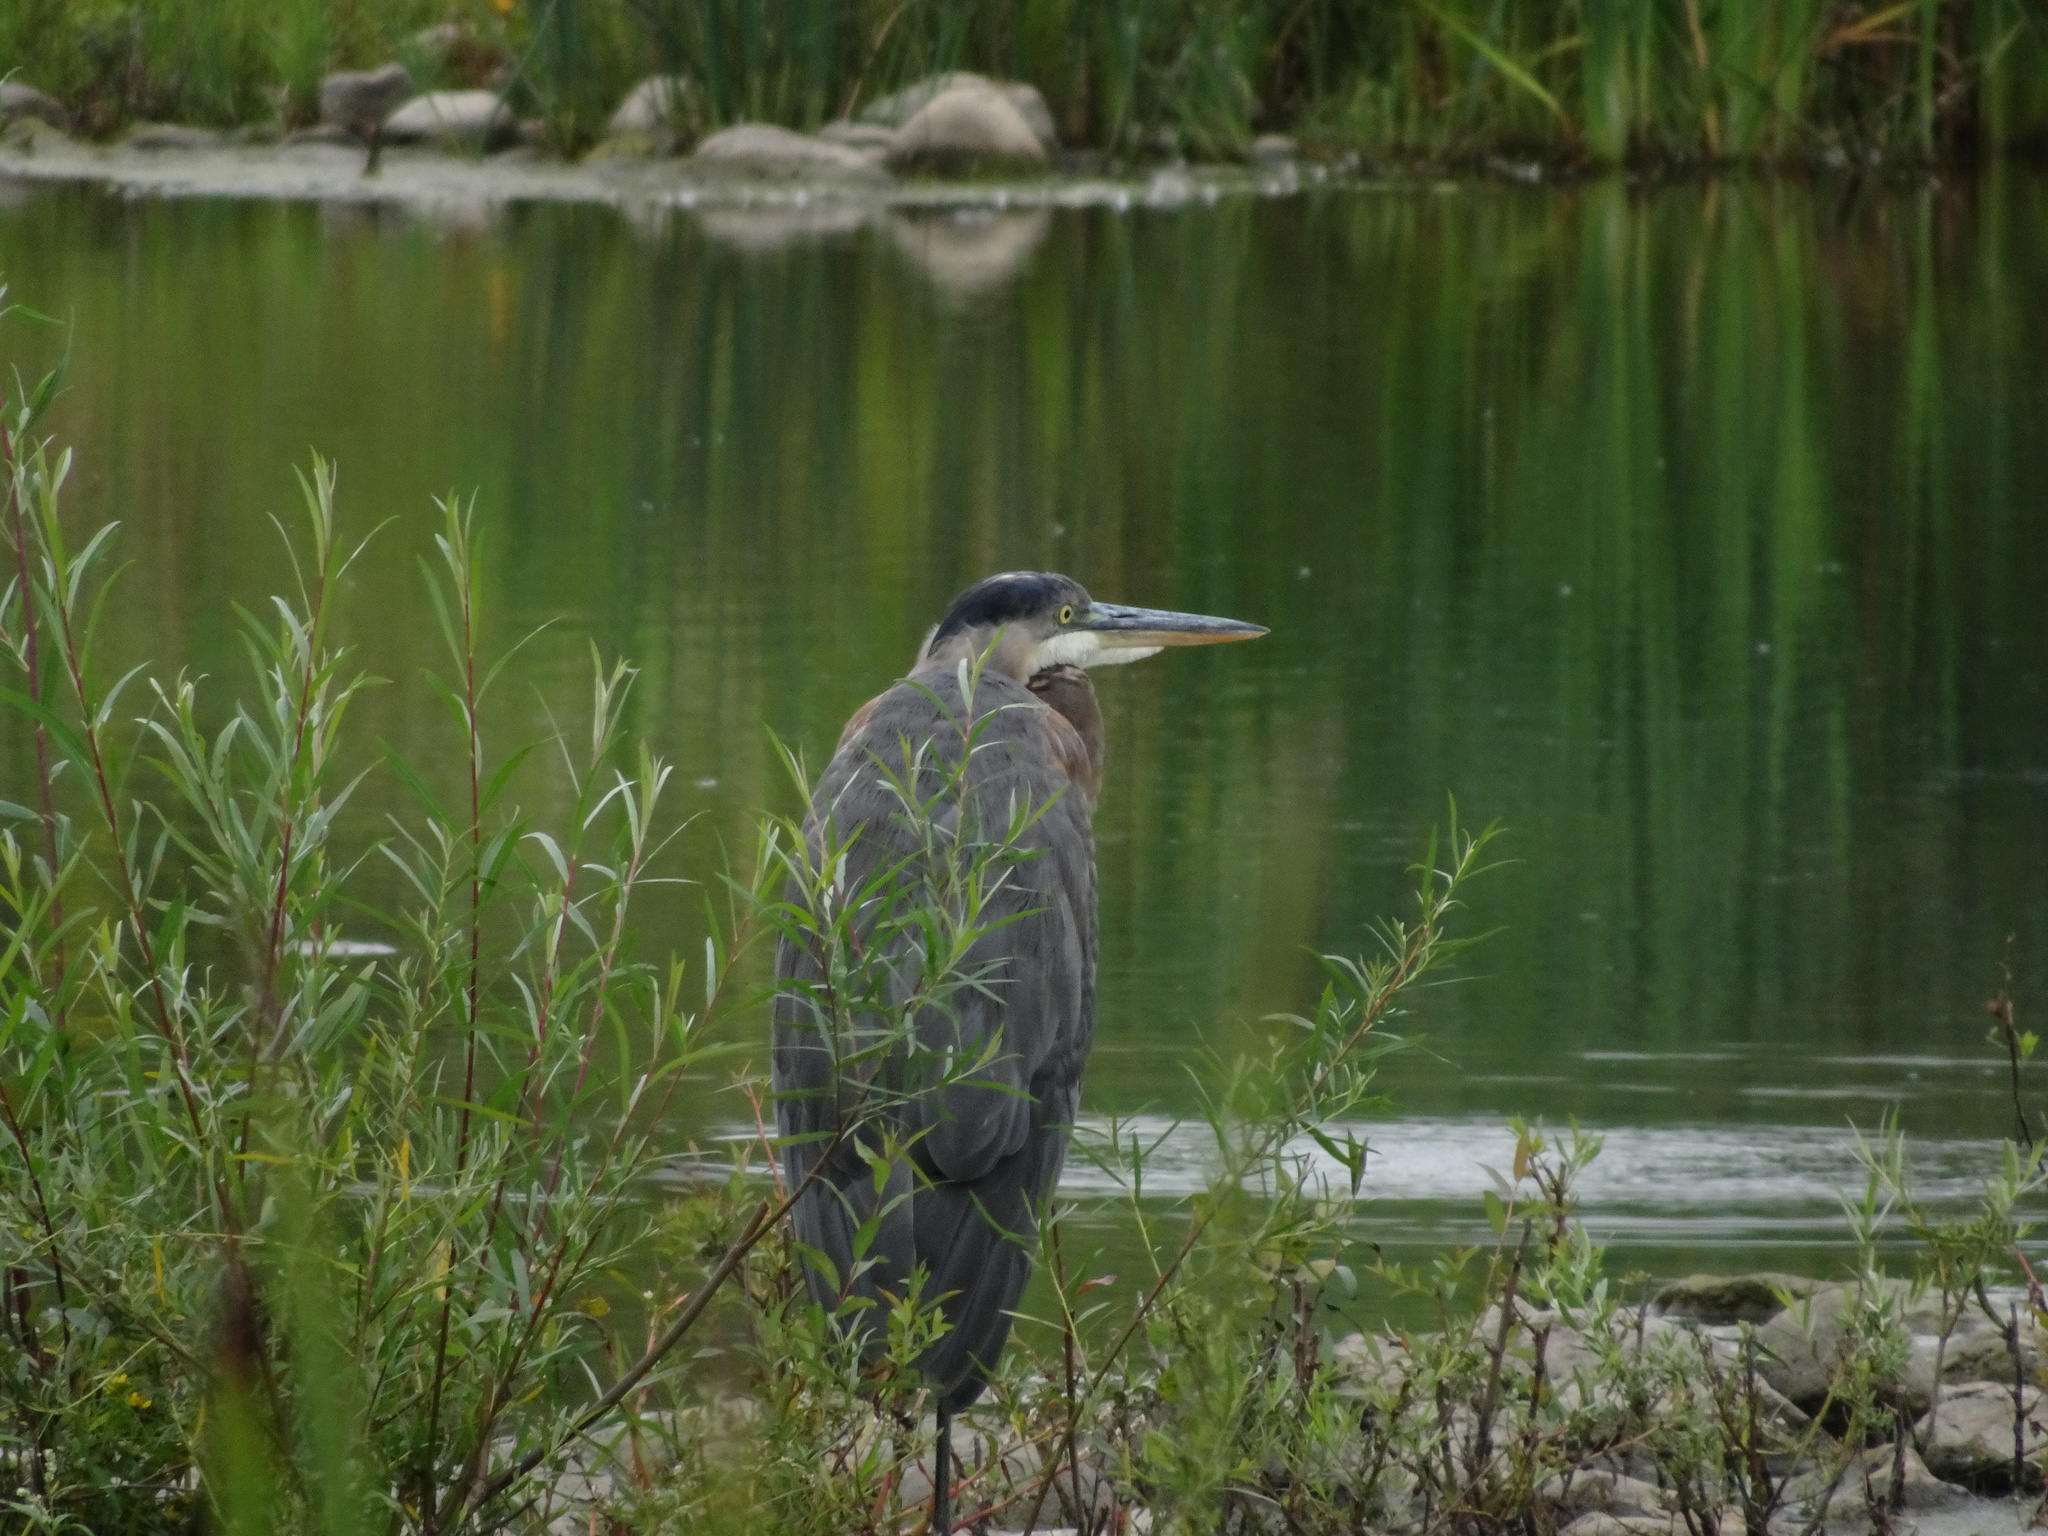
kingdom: Animalia
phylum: Chordata
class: Aves
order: Pelecaniformes
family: Ardeidae
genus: Ardea
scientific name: Ardea herodias
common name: Great blue heron
